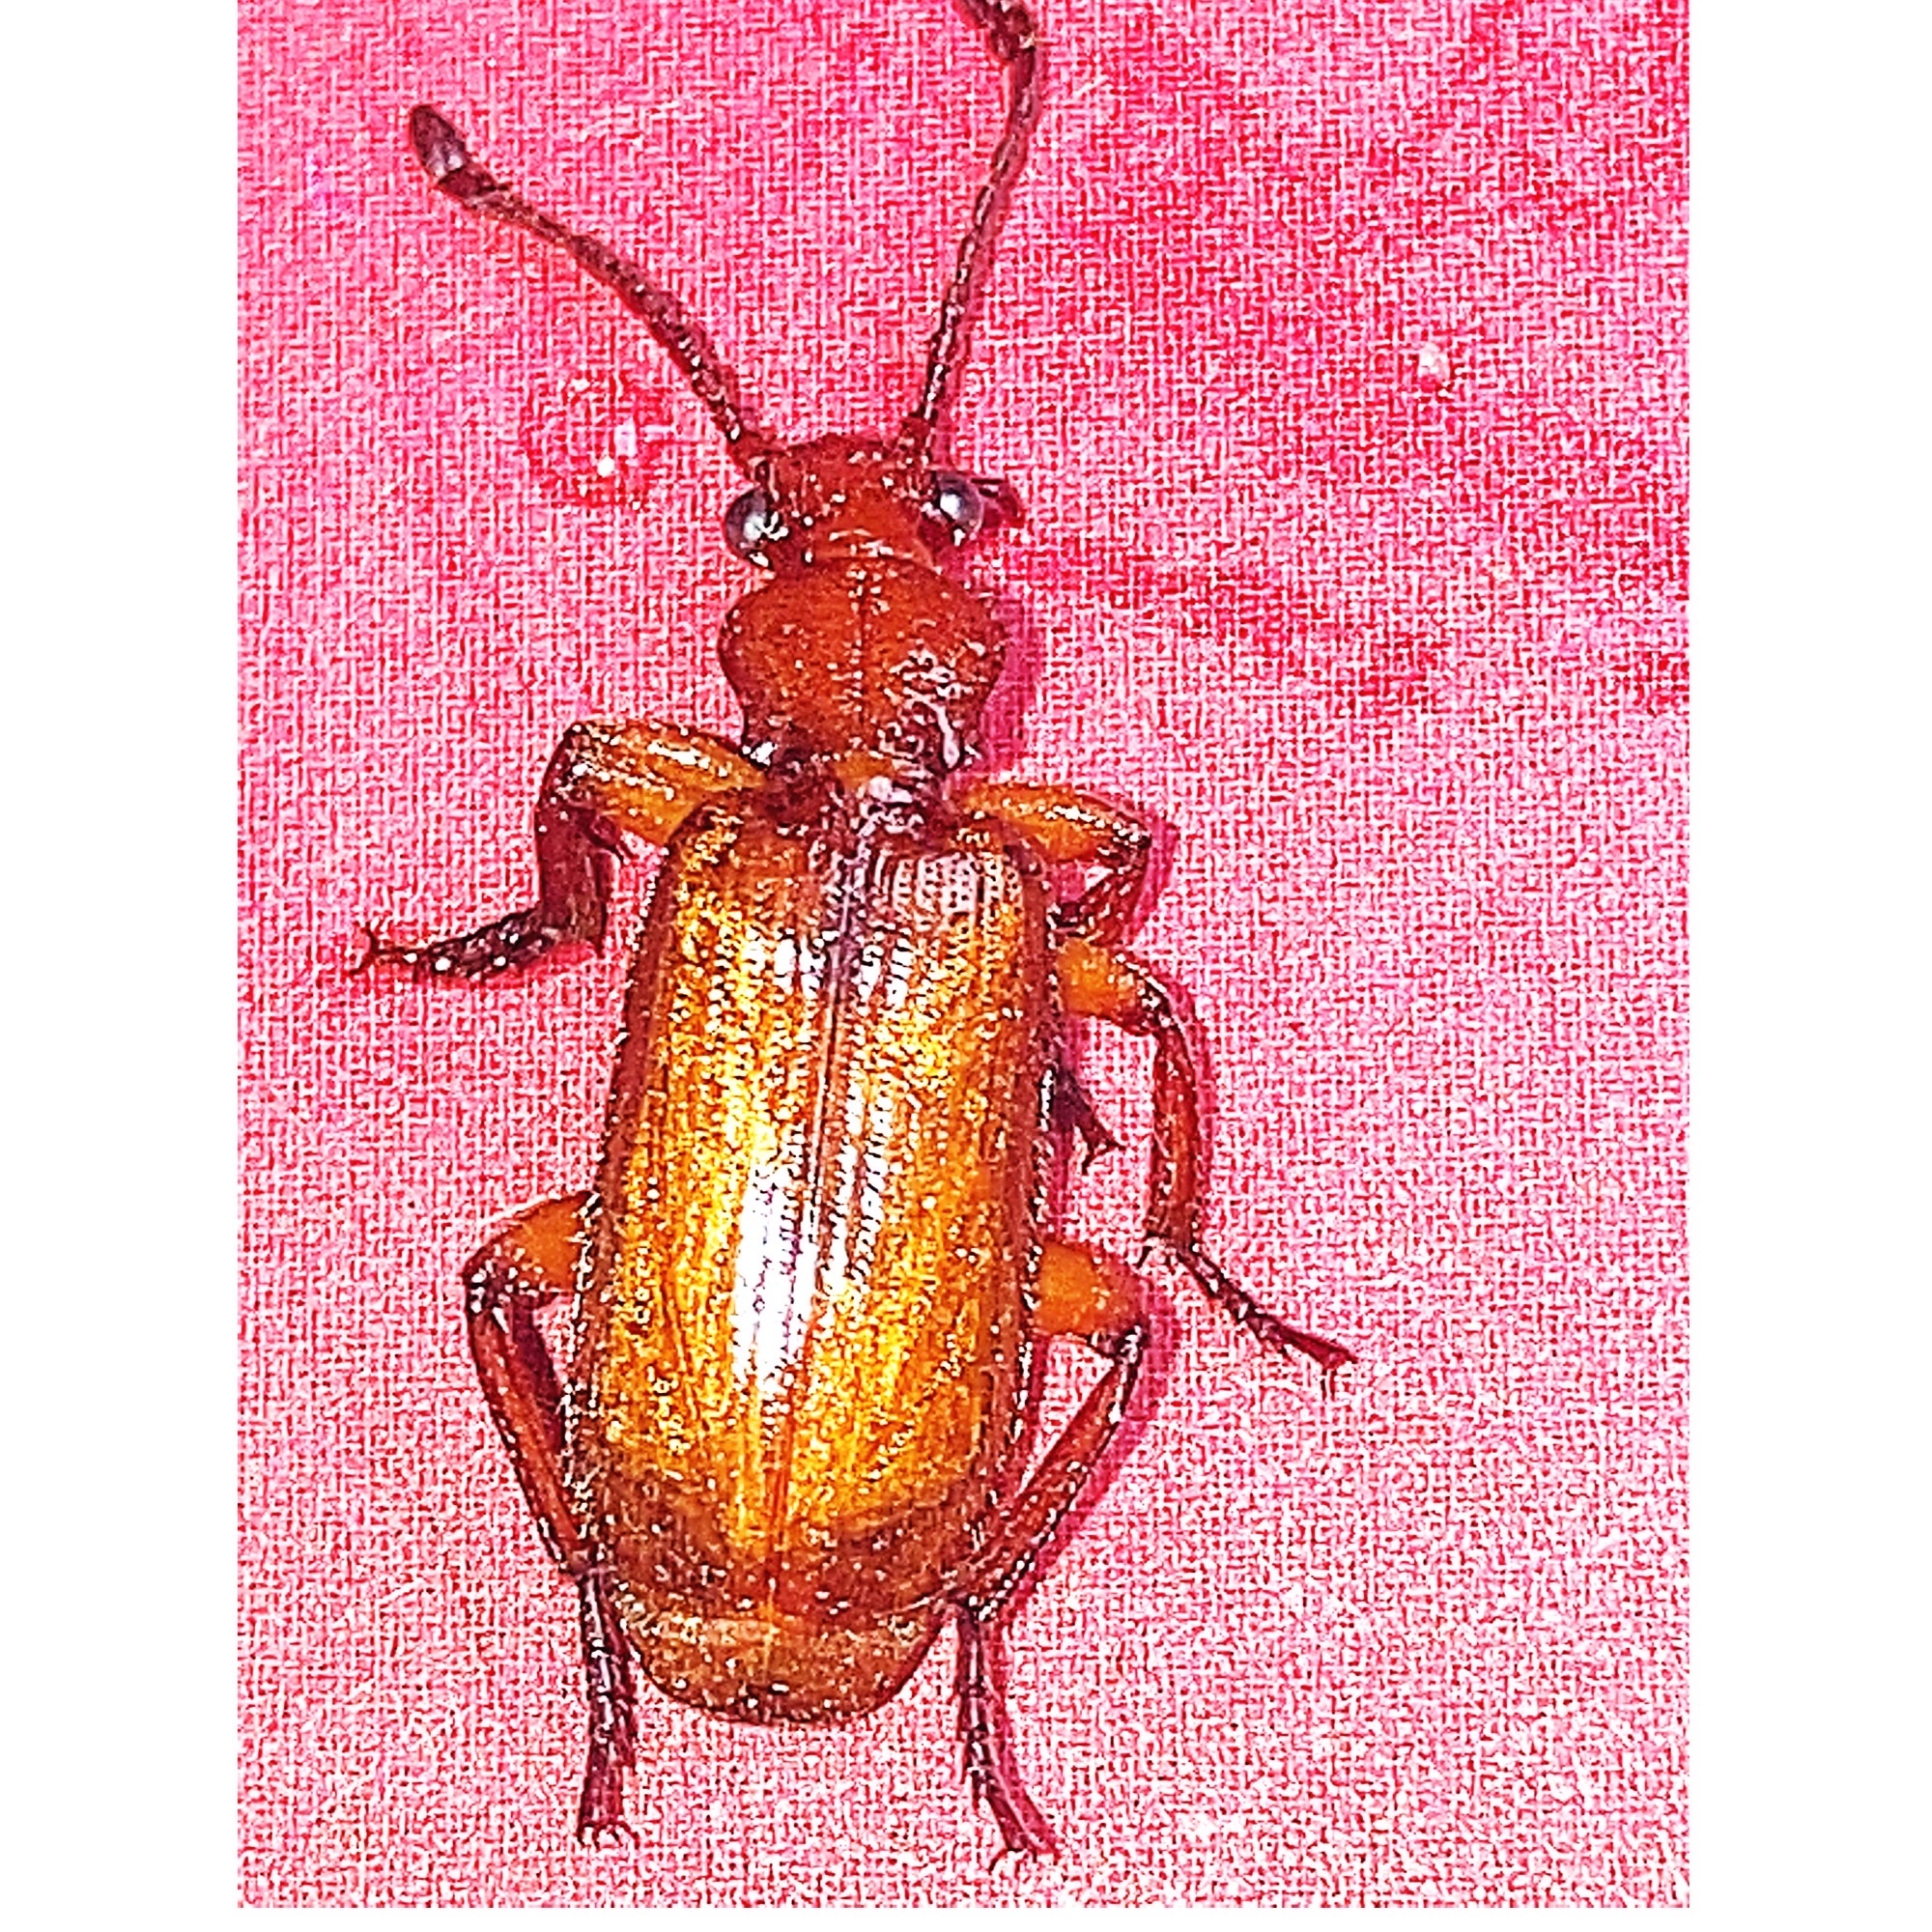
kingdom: Animalia
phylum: Arthropoda
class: Insecta
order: Coleoptera
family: Carabidae
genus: Helluomorphoides
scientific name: Helluomorphoides ferrugineus
